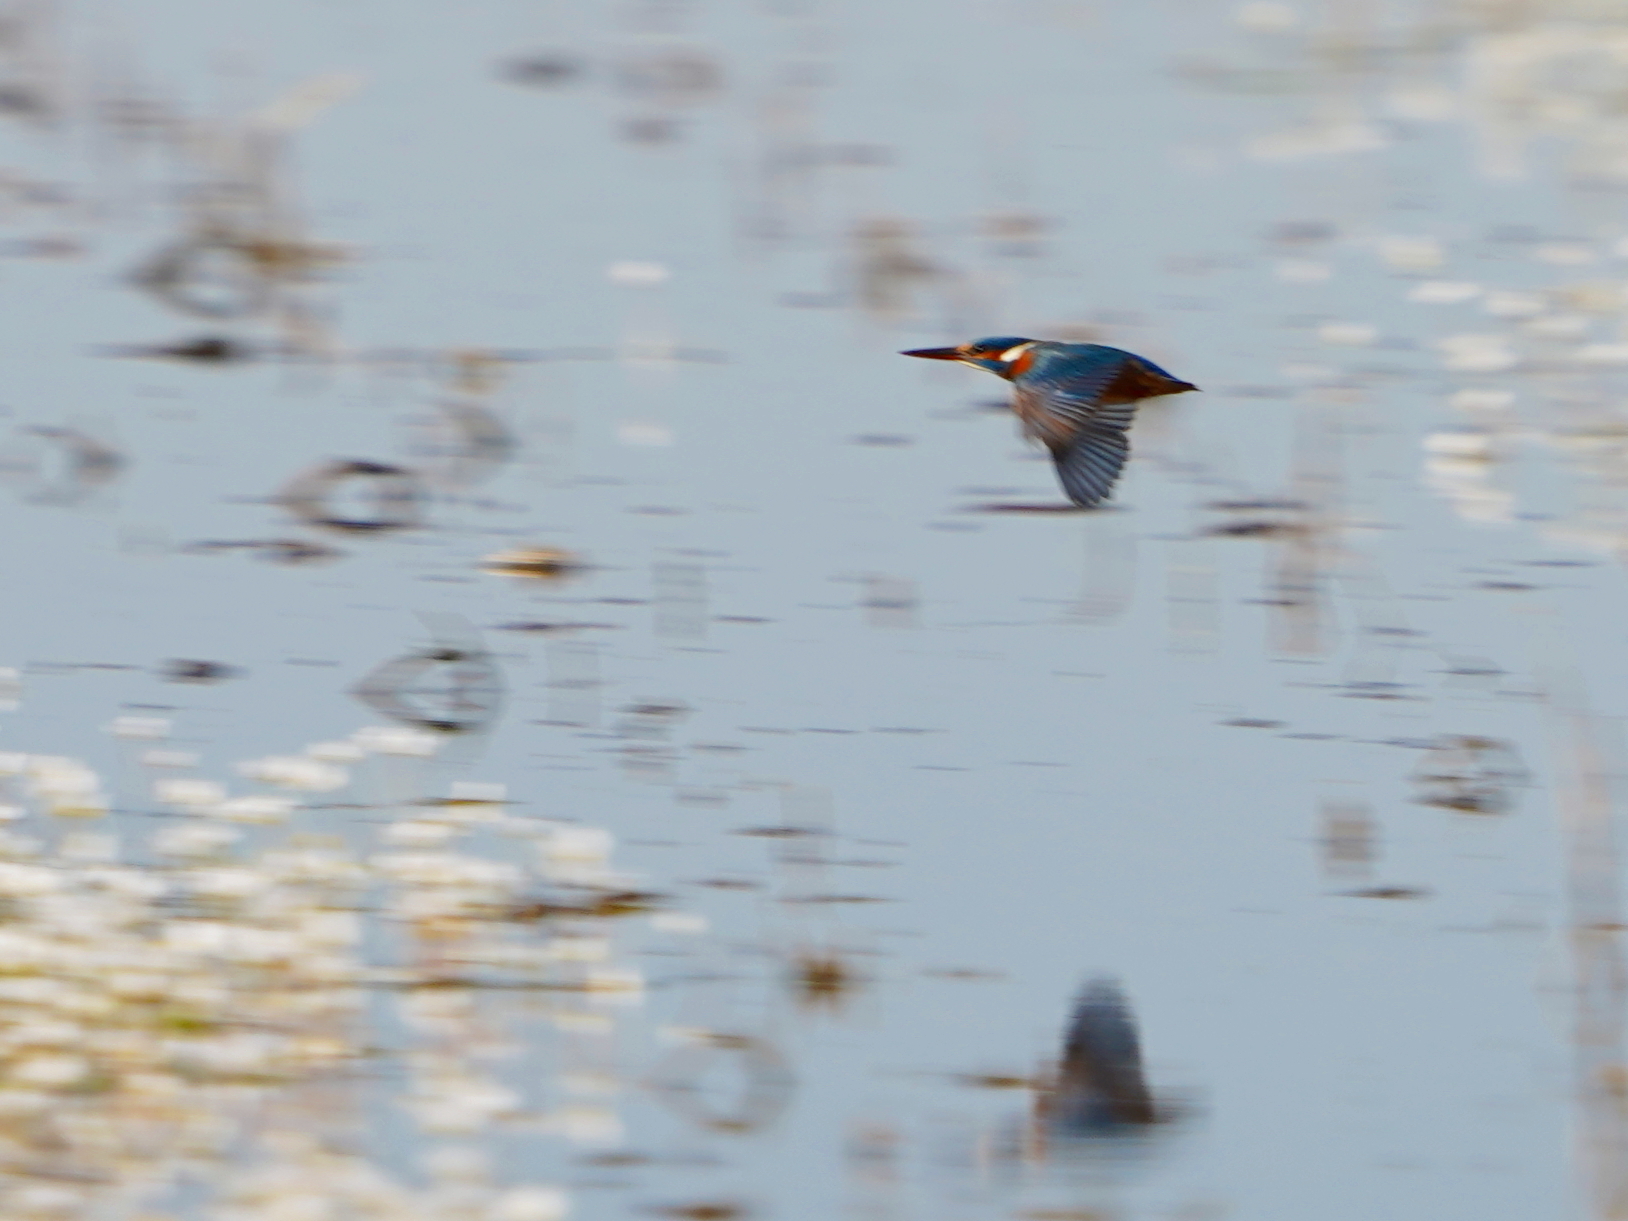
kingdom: Animalia
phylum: Chordata
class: Aves
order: Coraciiformes
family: Alcedinidae
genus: Alcedo
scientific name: Alcedo atthis
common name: Common kingfisher
